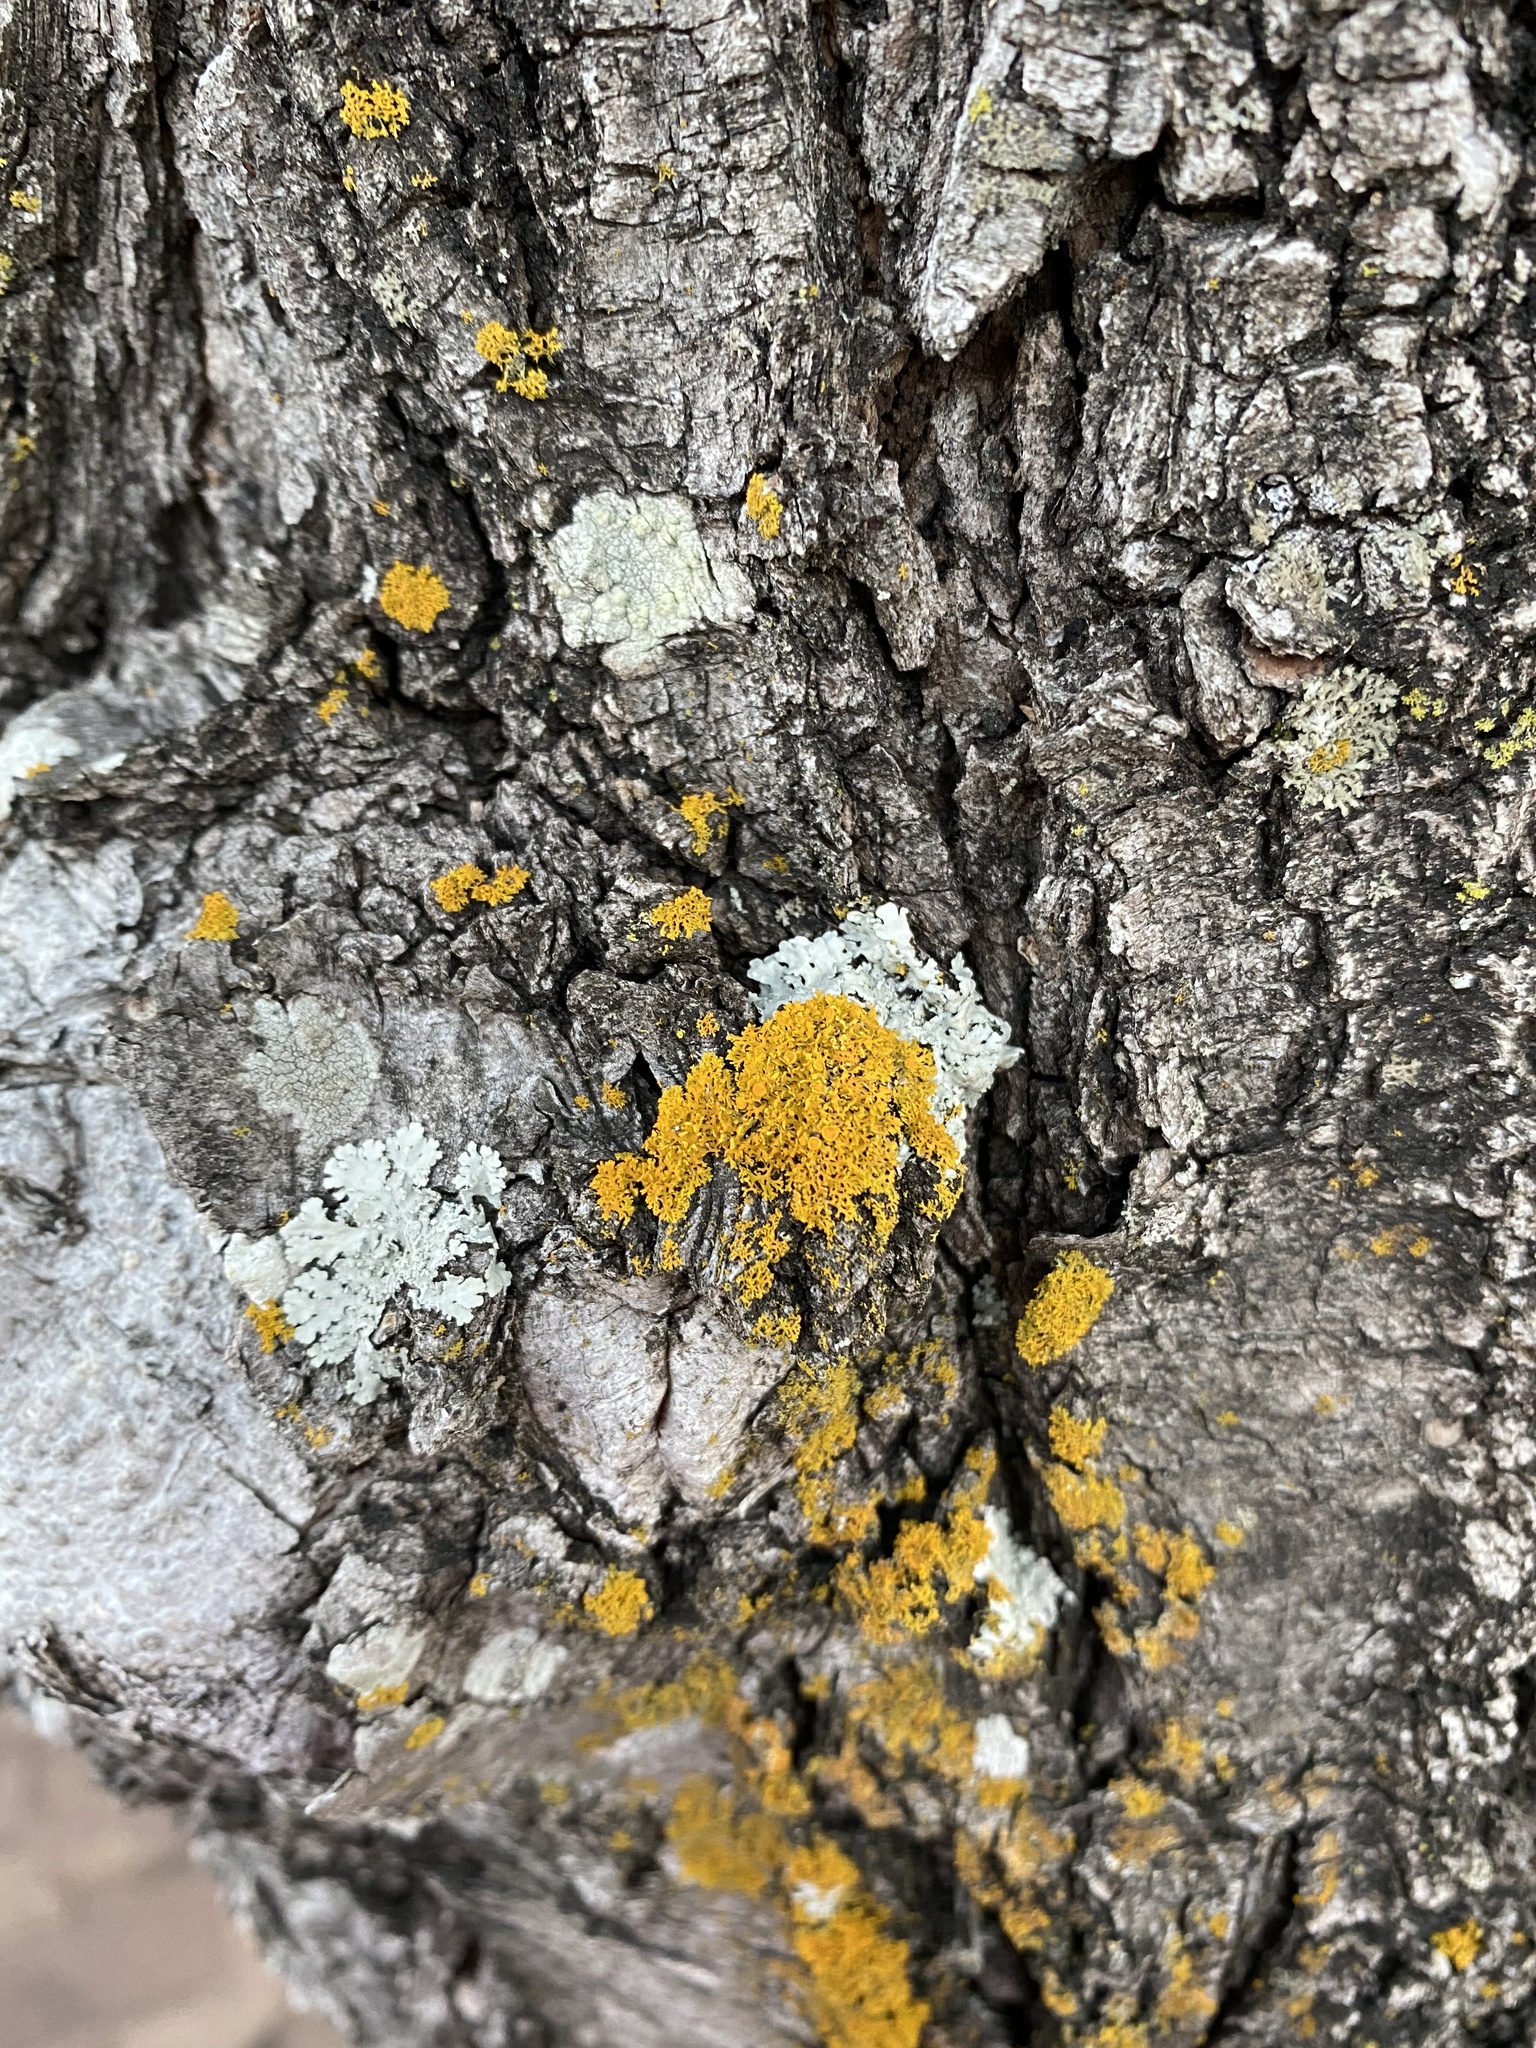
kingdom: Fungi
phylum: Ascomycota
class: Lecanoromycetes
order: Teloschistales
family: Teloschistaceae
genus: Gallowayella
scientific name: Gallowayella weberi
